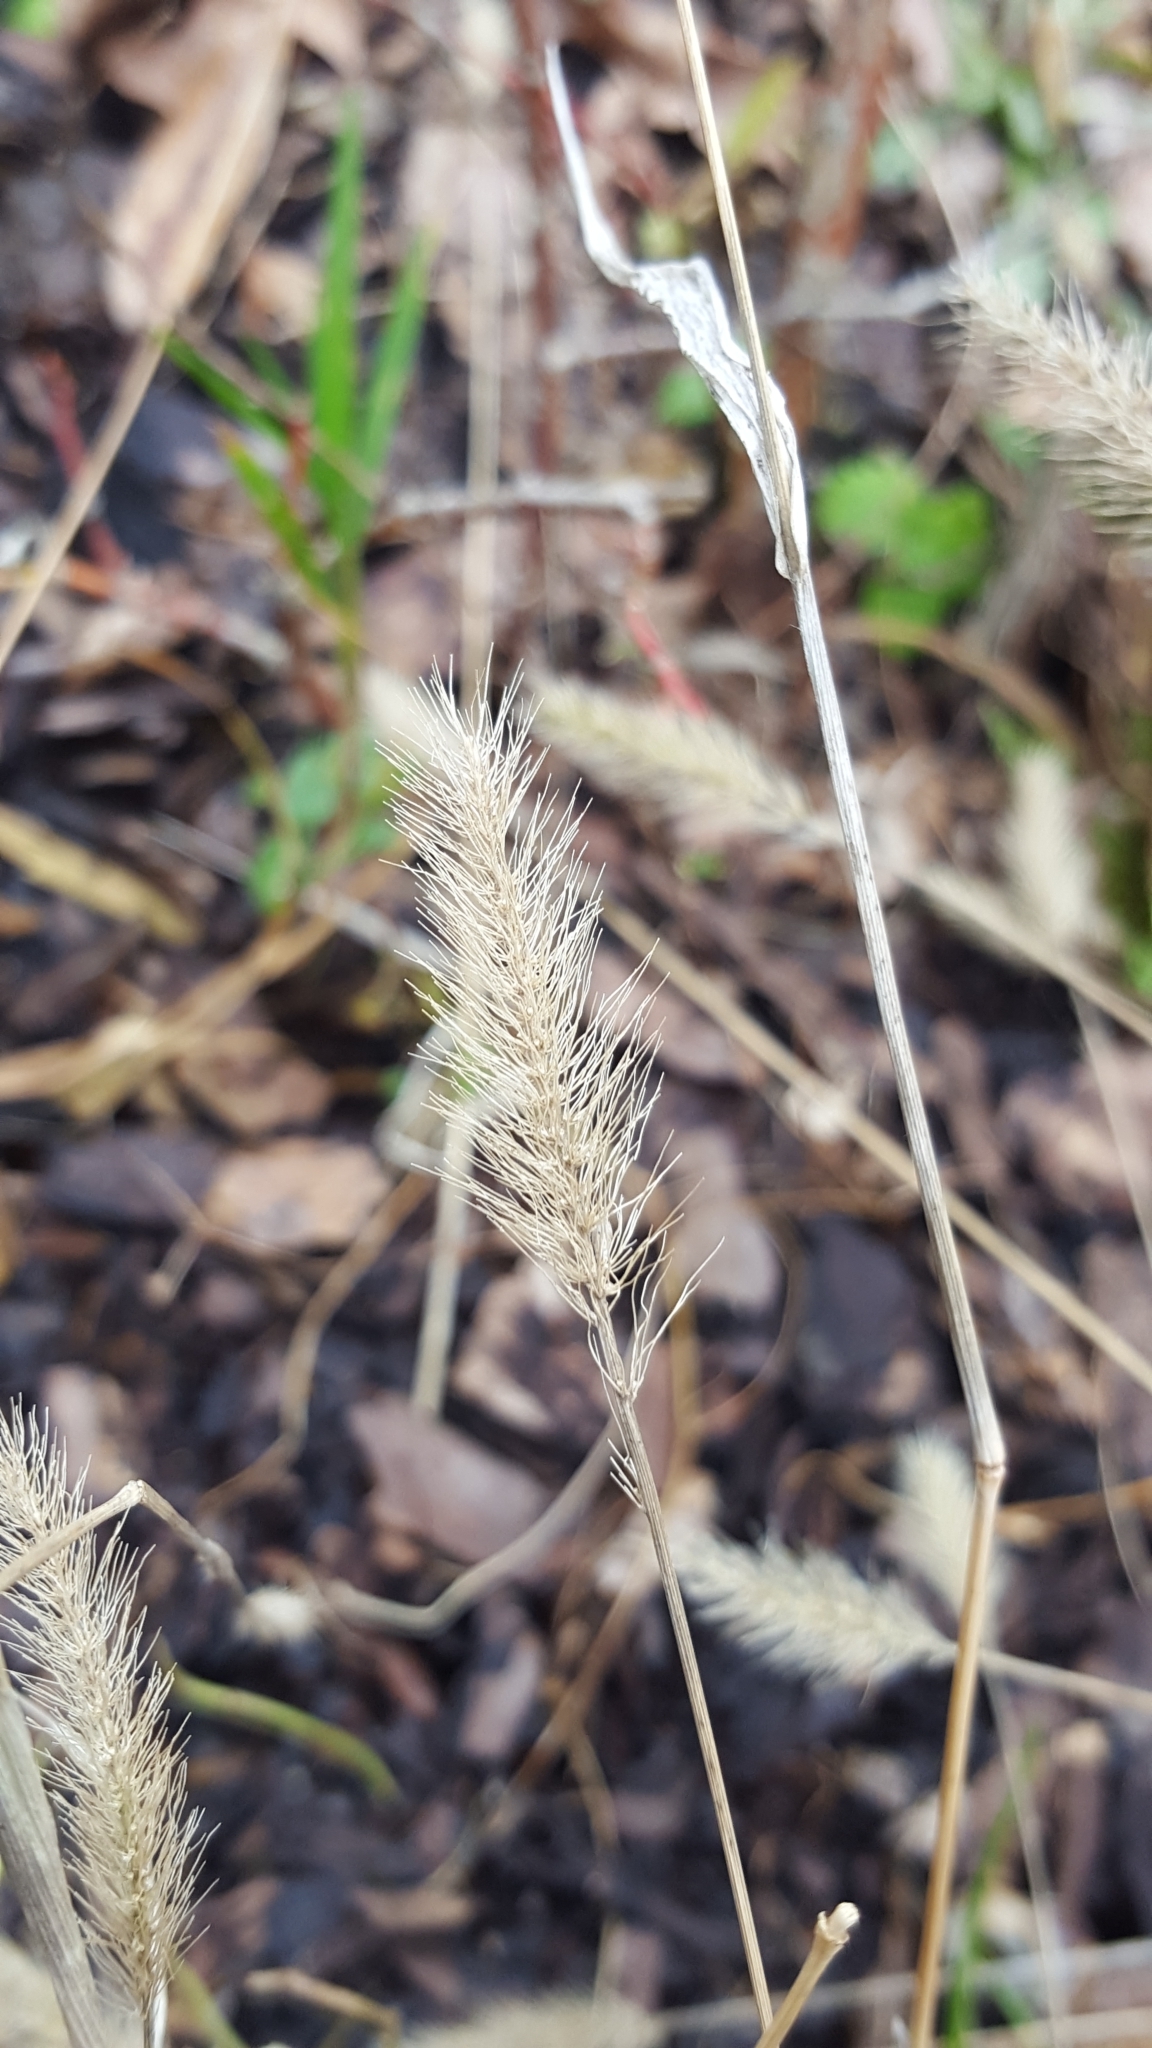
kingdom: Plantae
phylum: Tracheophyta
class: Liliopsida
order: Poales
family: Poaceae
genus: Setaria
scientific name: Setaria viridis
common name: Green bristlegrass
